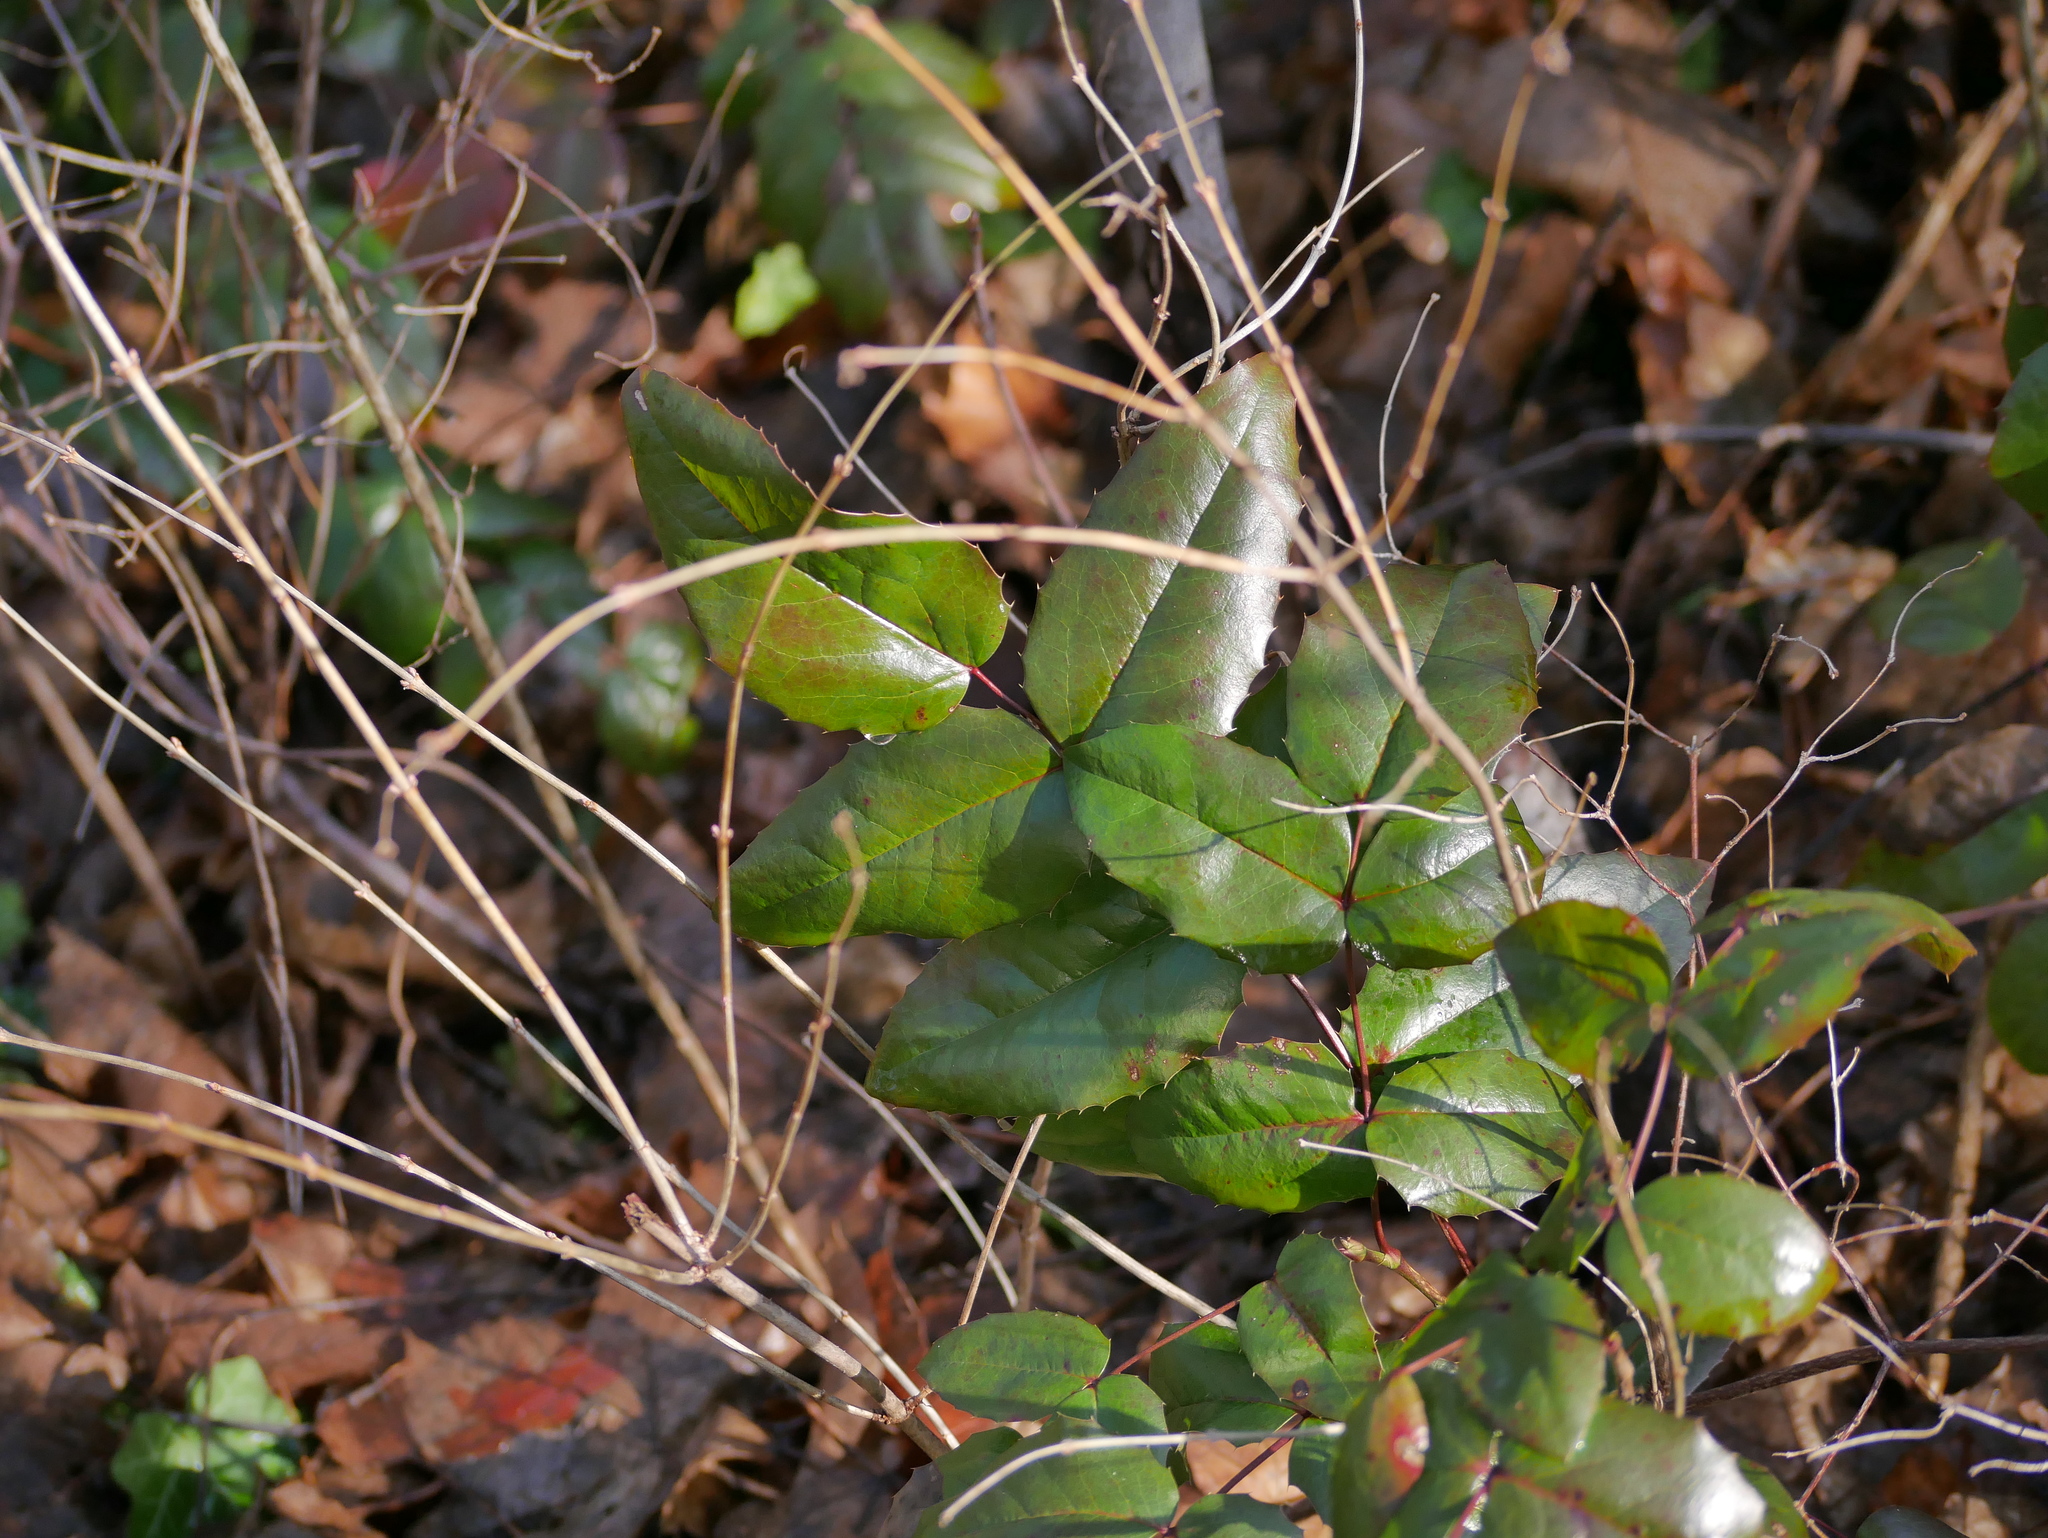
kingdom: Plantae
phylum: Tracheophyta
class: Magnoliopsida
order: Ranunculales
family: Berberidaceae
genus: Mahonia
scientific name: Mahonia aquifolium
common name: Oregon-grape
